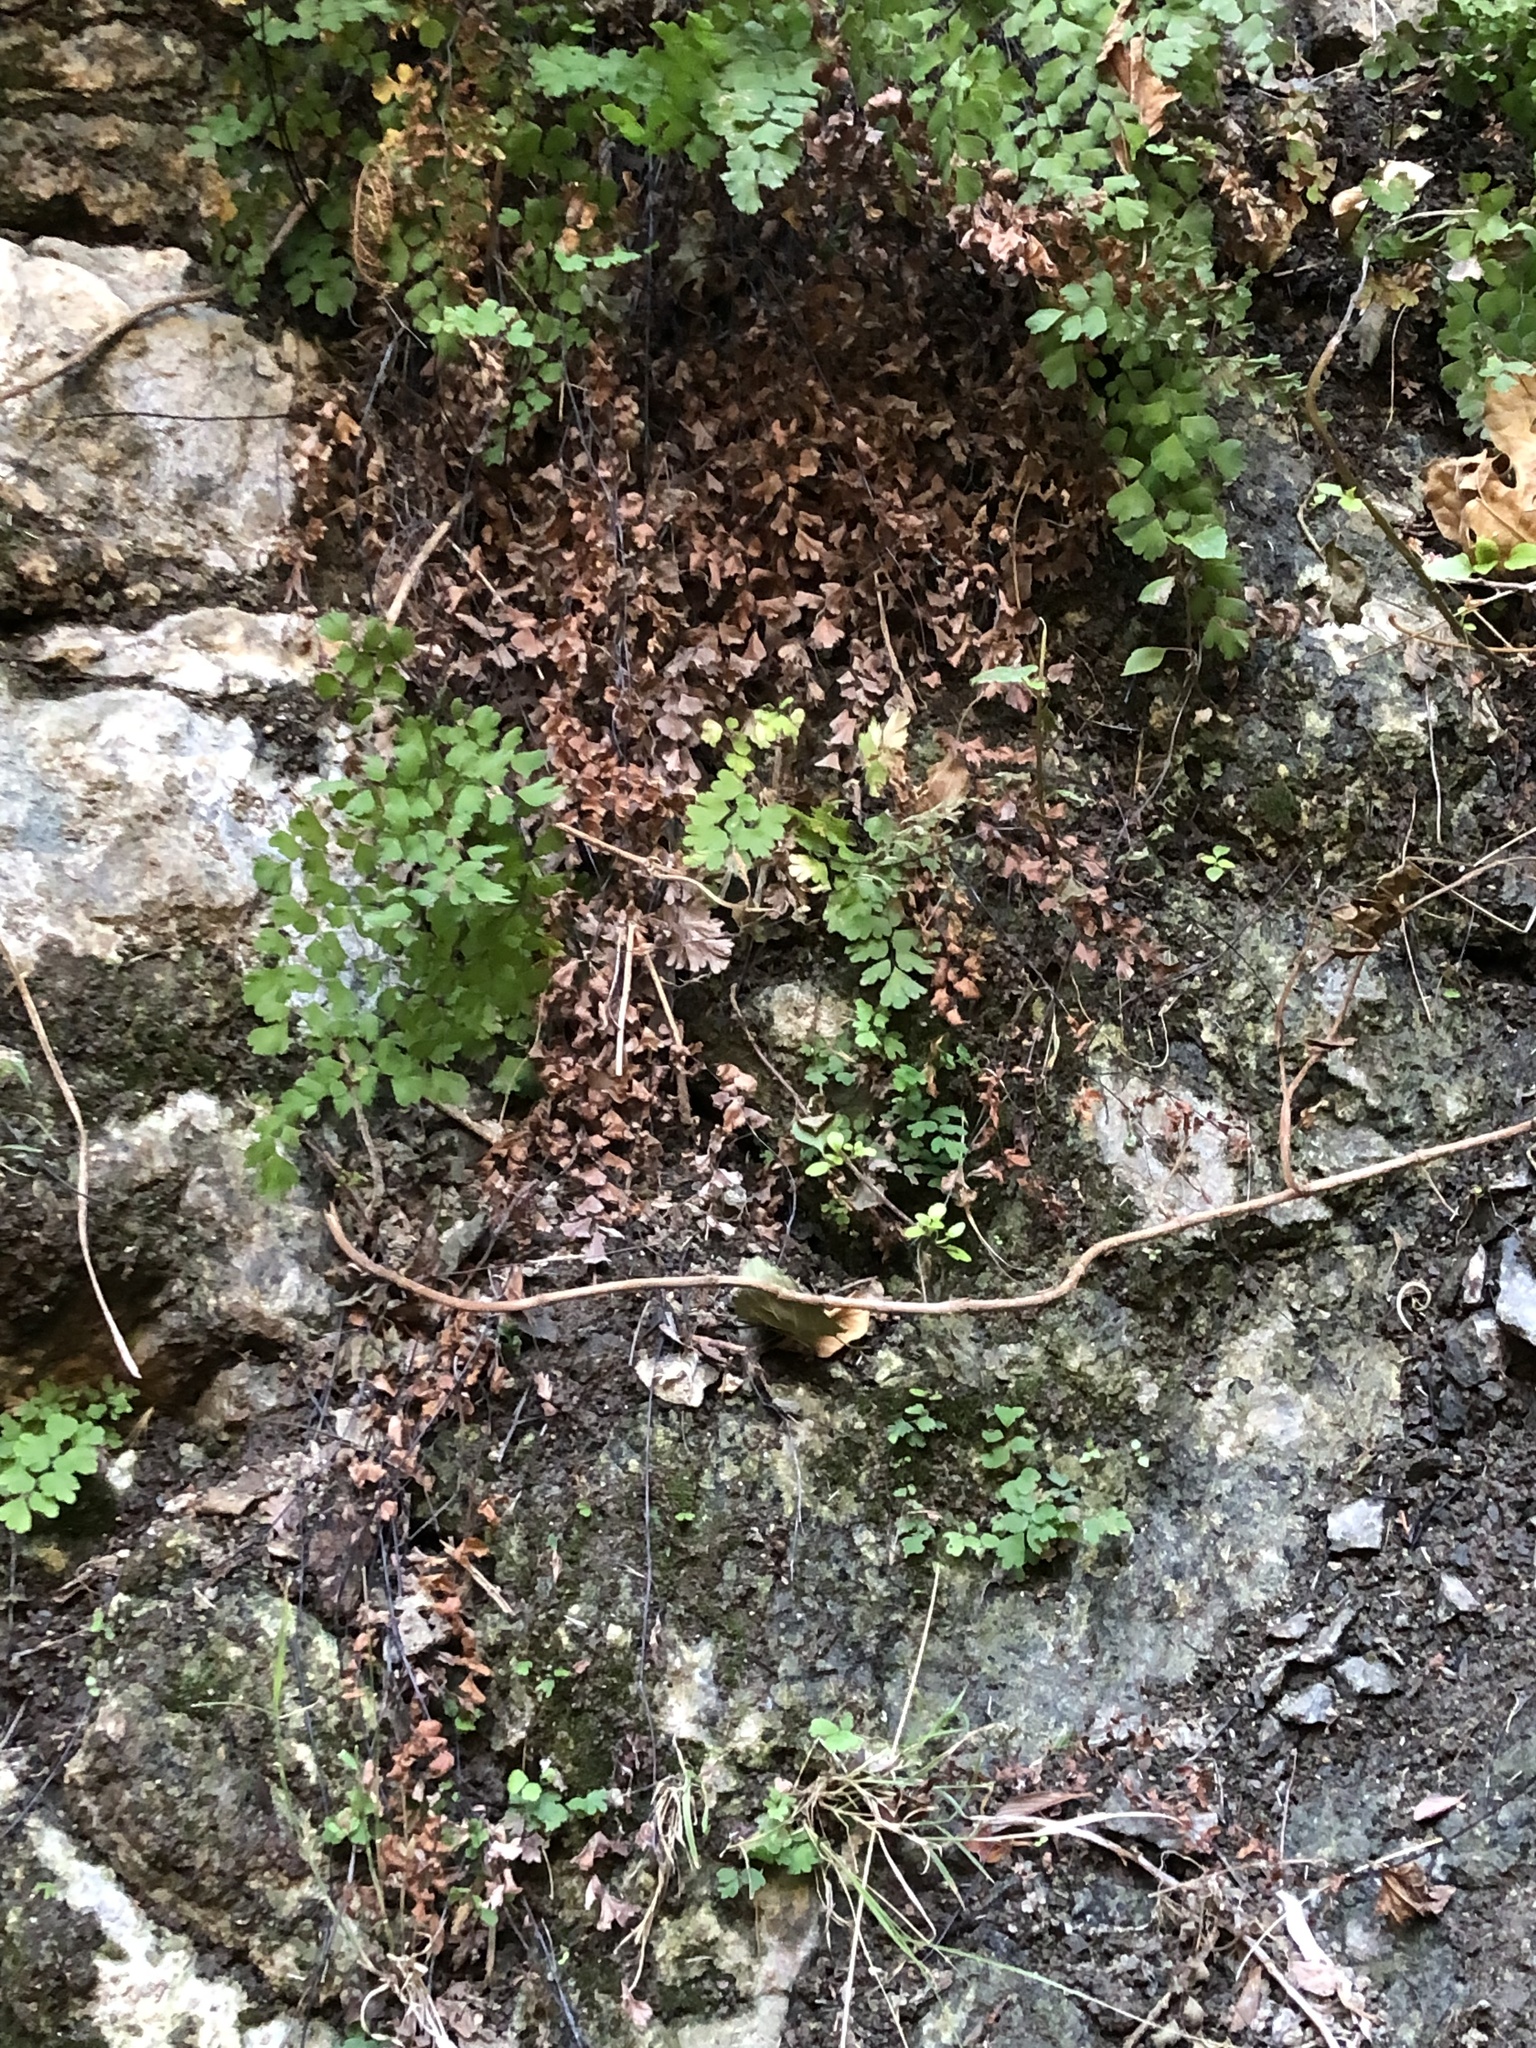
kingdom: Plantae
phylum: Tracheophyta
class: Polypodiopsida
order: Polypodiales
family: Pteridaceae
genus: Adiantum
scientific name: Adiantum capillus-veneris
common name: Maidenhair fern
